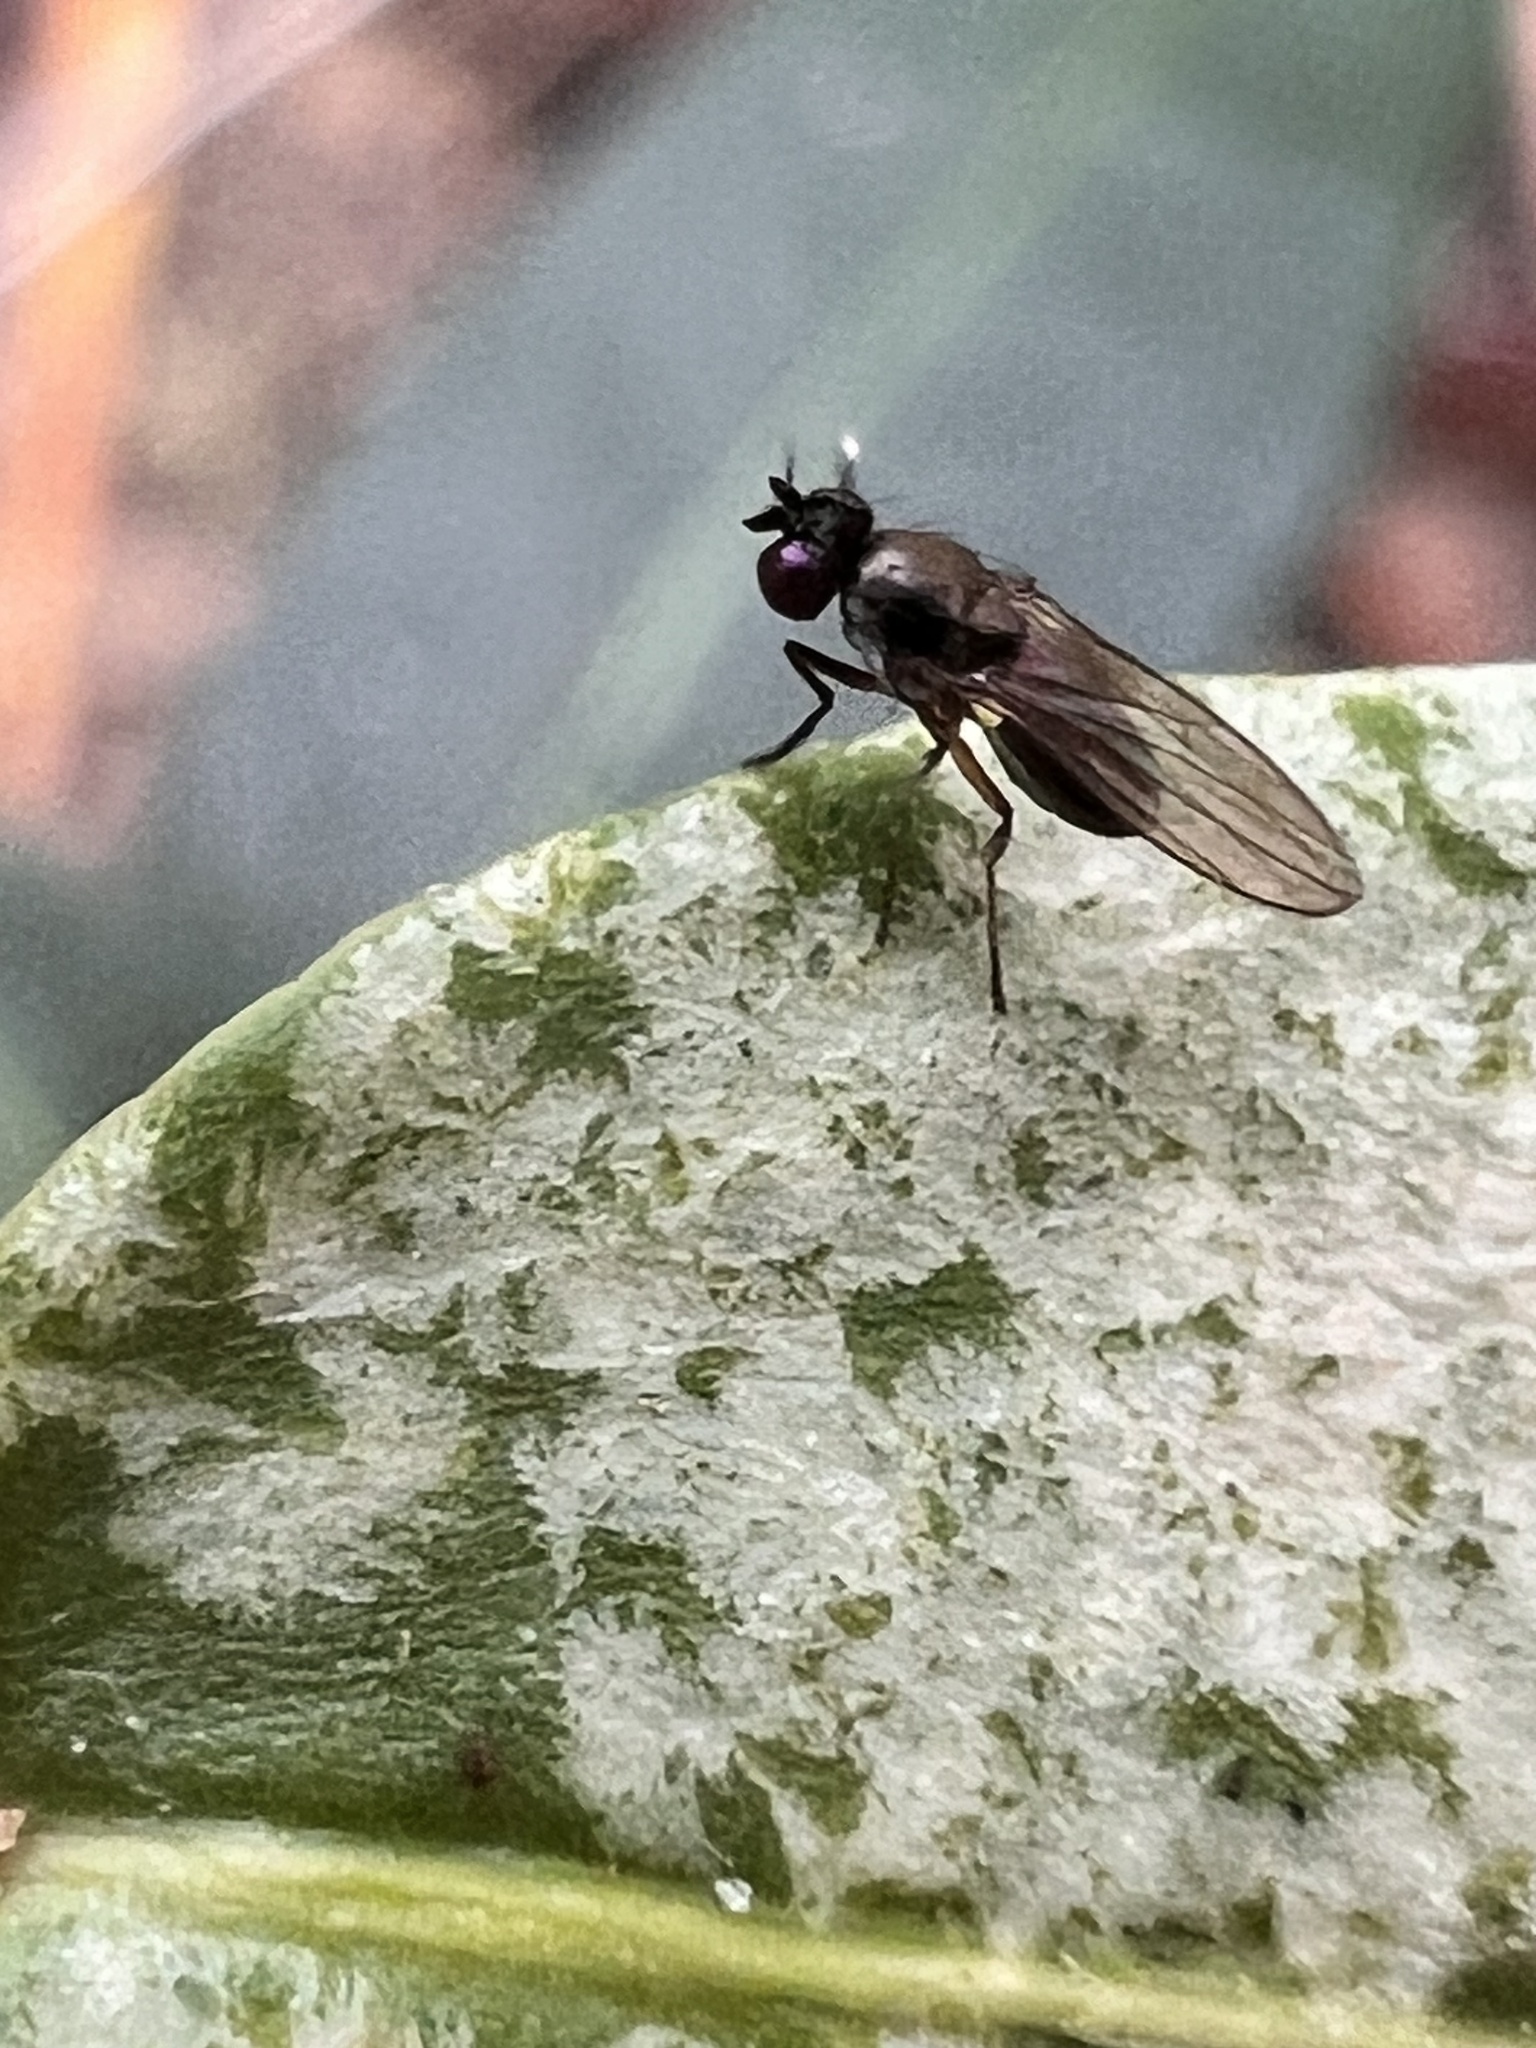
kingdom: Animalia
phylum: Arthropoda
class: Insecta
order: Diptera
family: Ephydridae
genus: Hydrellia
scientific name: Hydrellia tritici
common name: Shore fly
